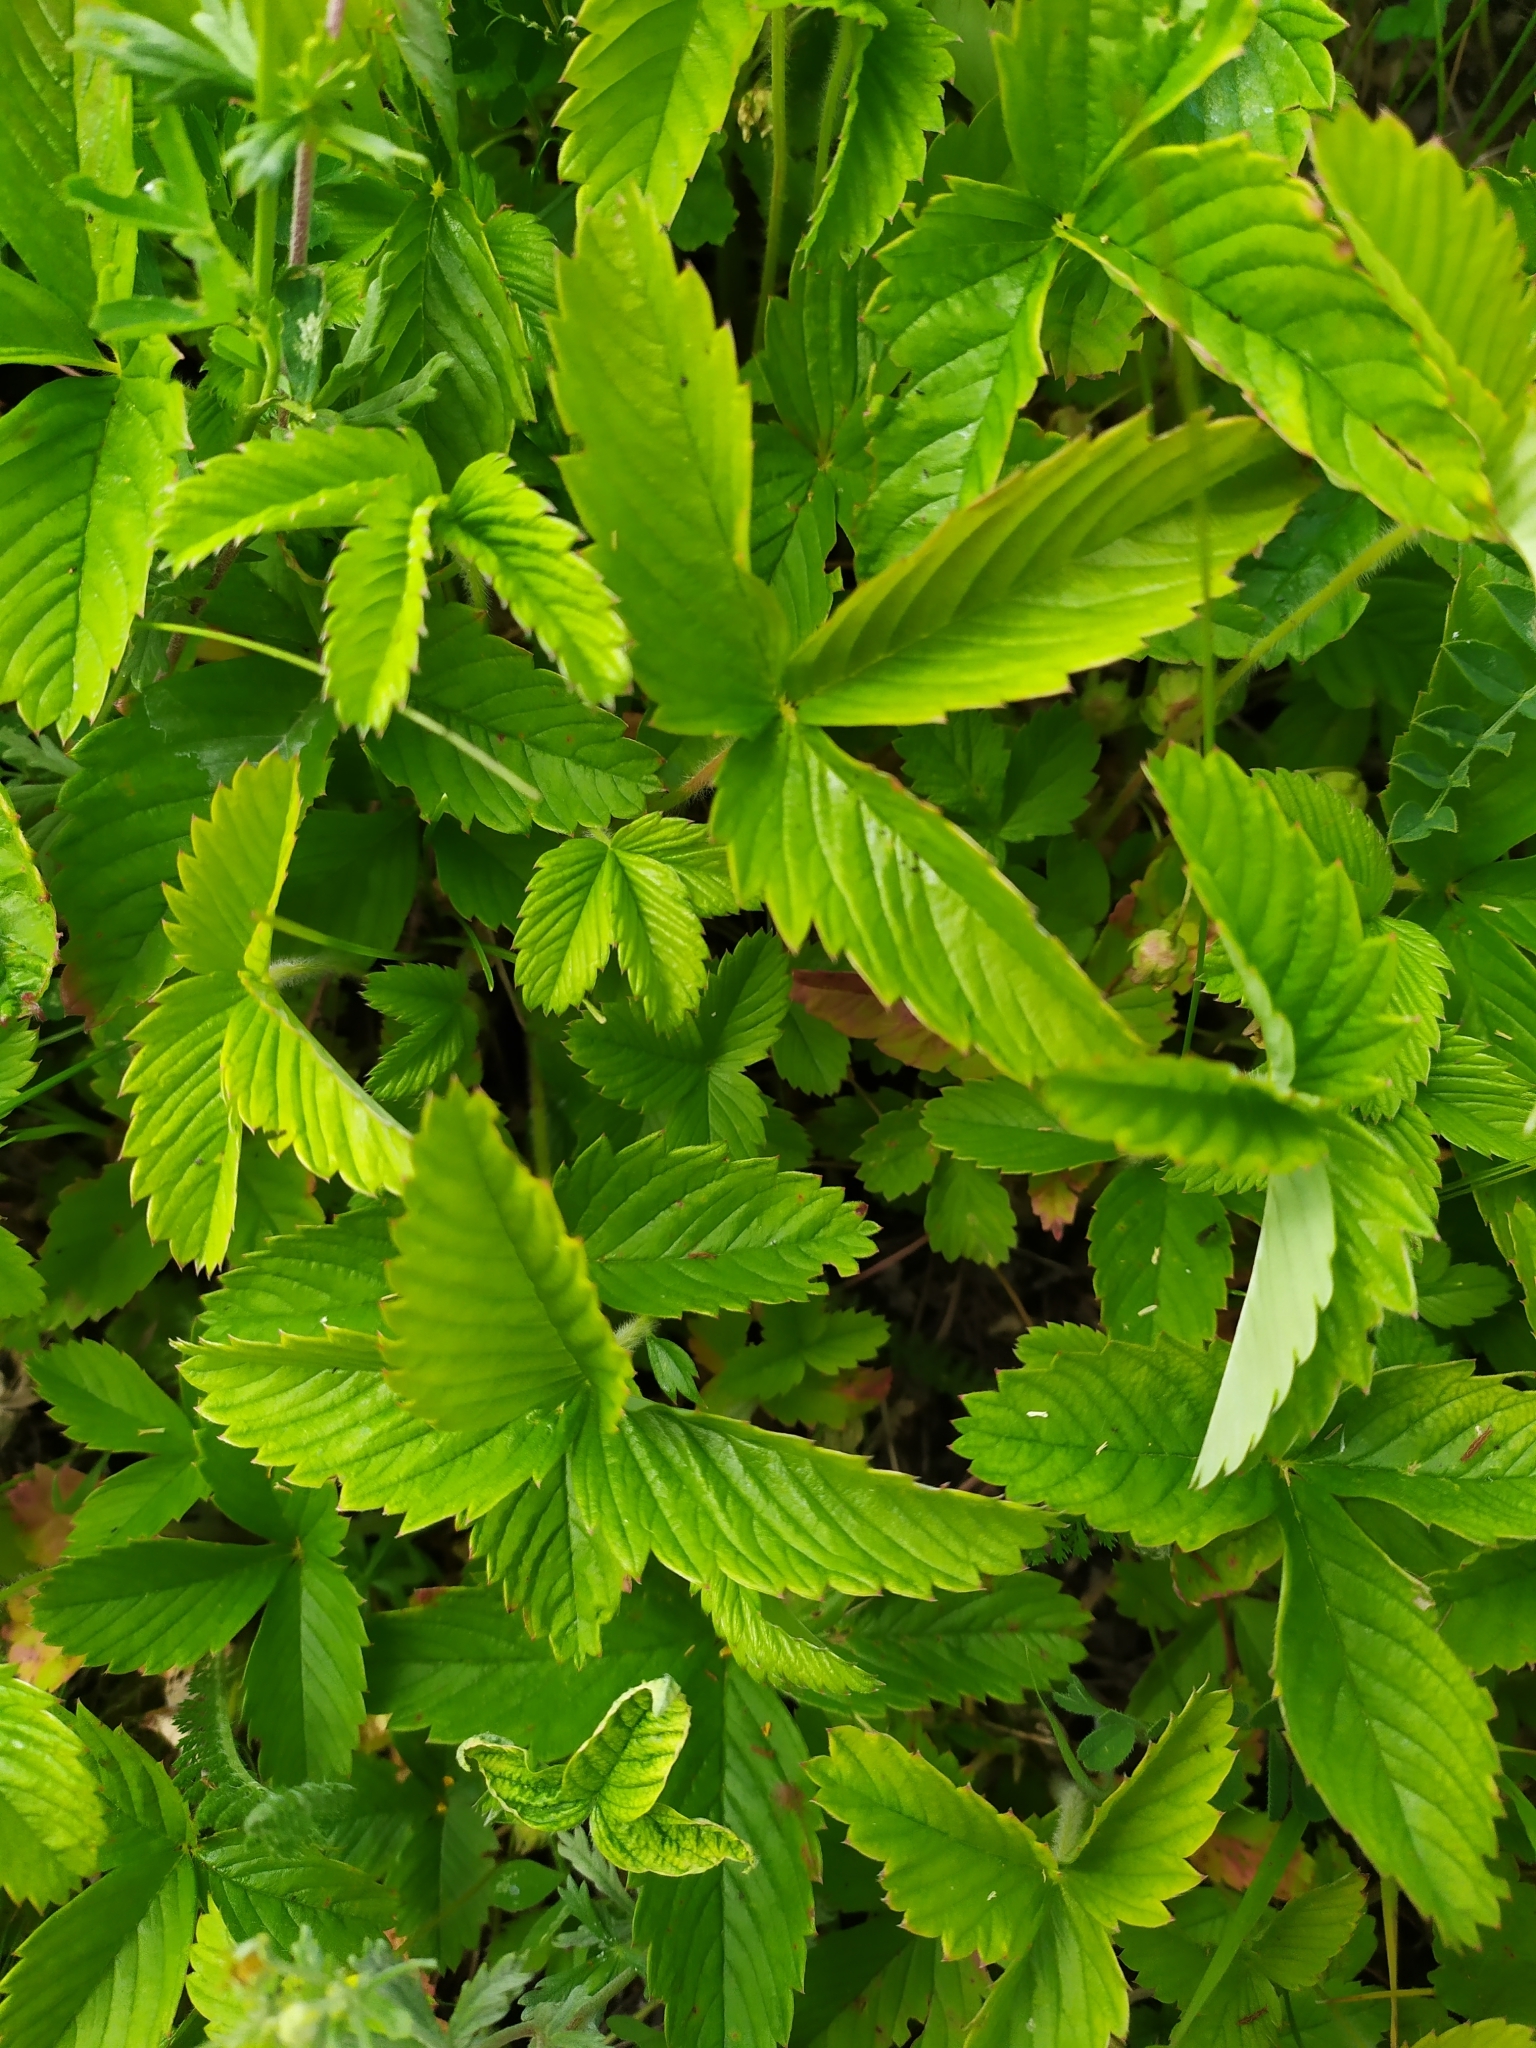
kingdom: Plantae
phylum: Tracheophyta
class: Magnoliopsida
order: Rosales
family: Rosaceae
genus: Fragaria
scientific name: Fragaria viridis
